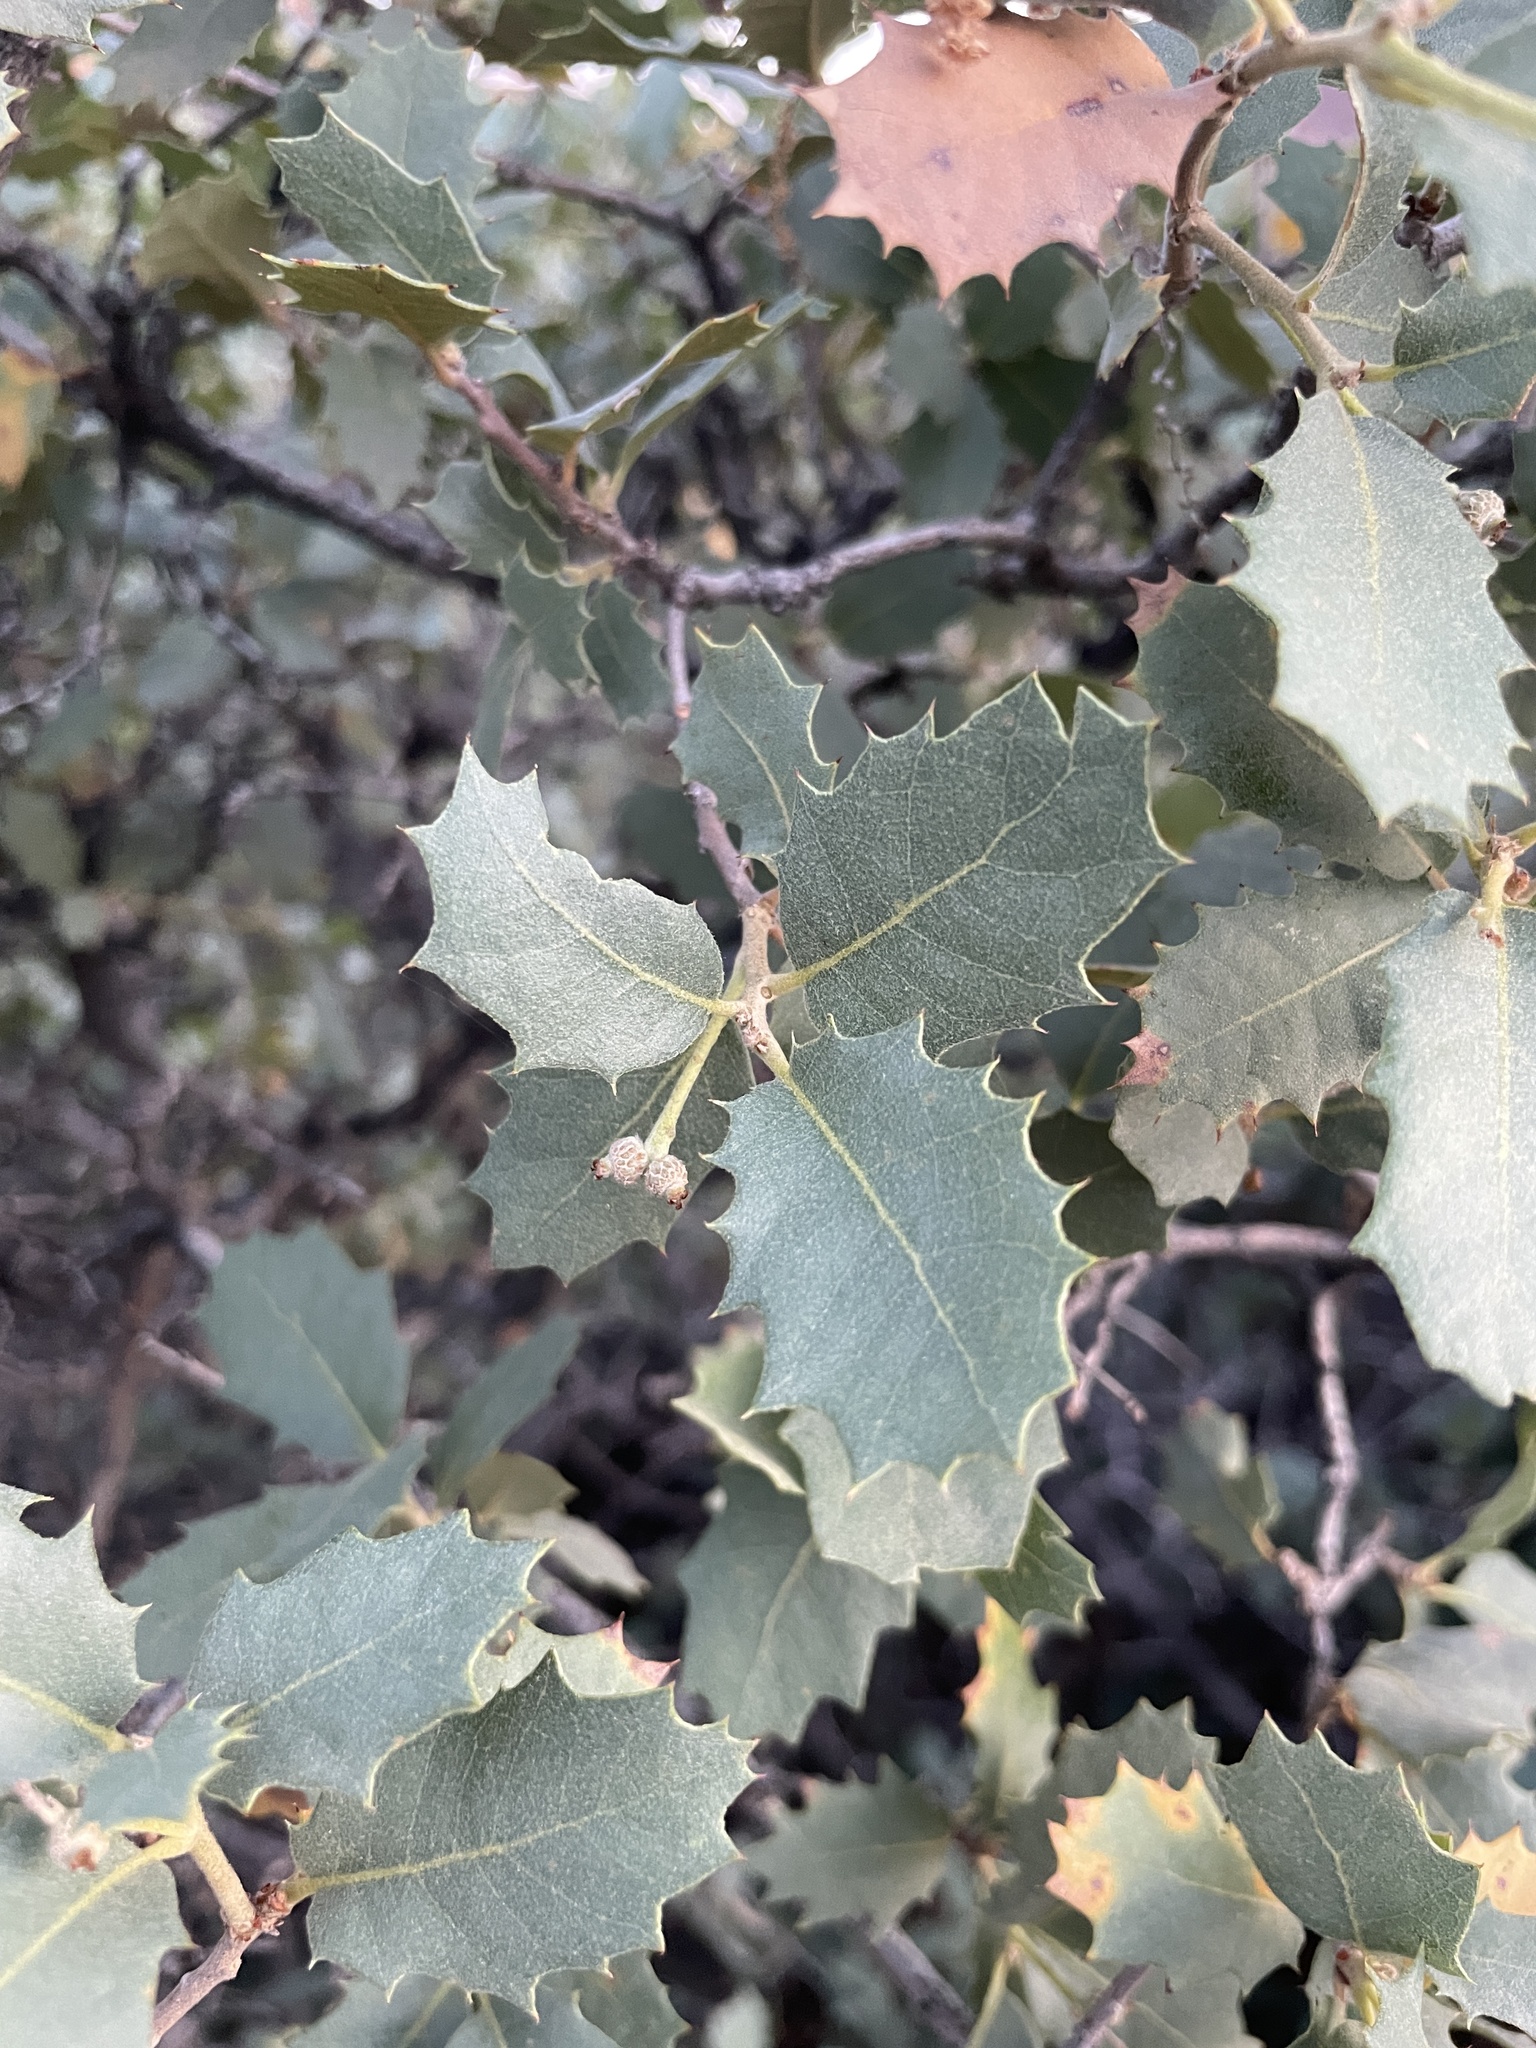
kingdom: Plantae
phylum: Tracheophyta
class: Magnoliopsida
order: Fagales
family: Fagaceae
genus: Quercus
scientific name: Quercus turbinella
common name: Sonoran scrub oak
